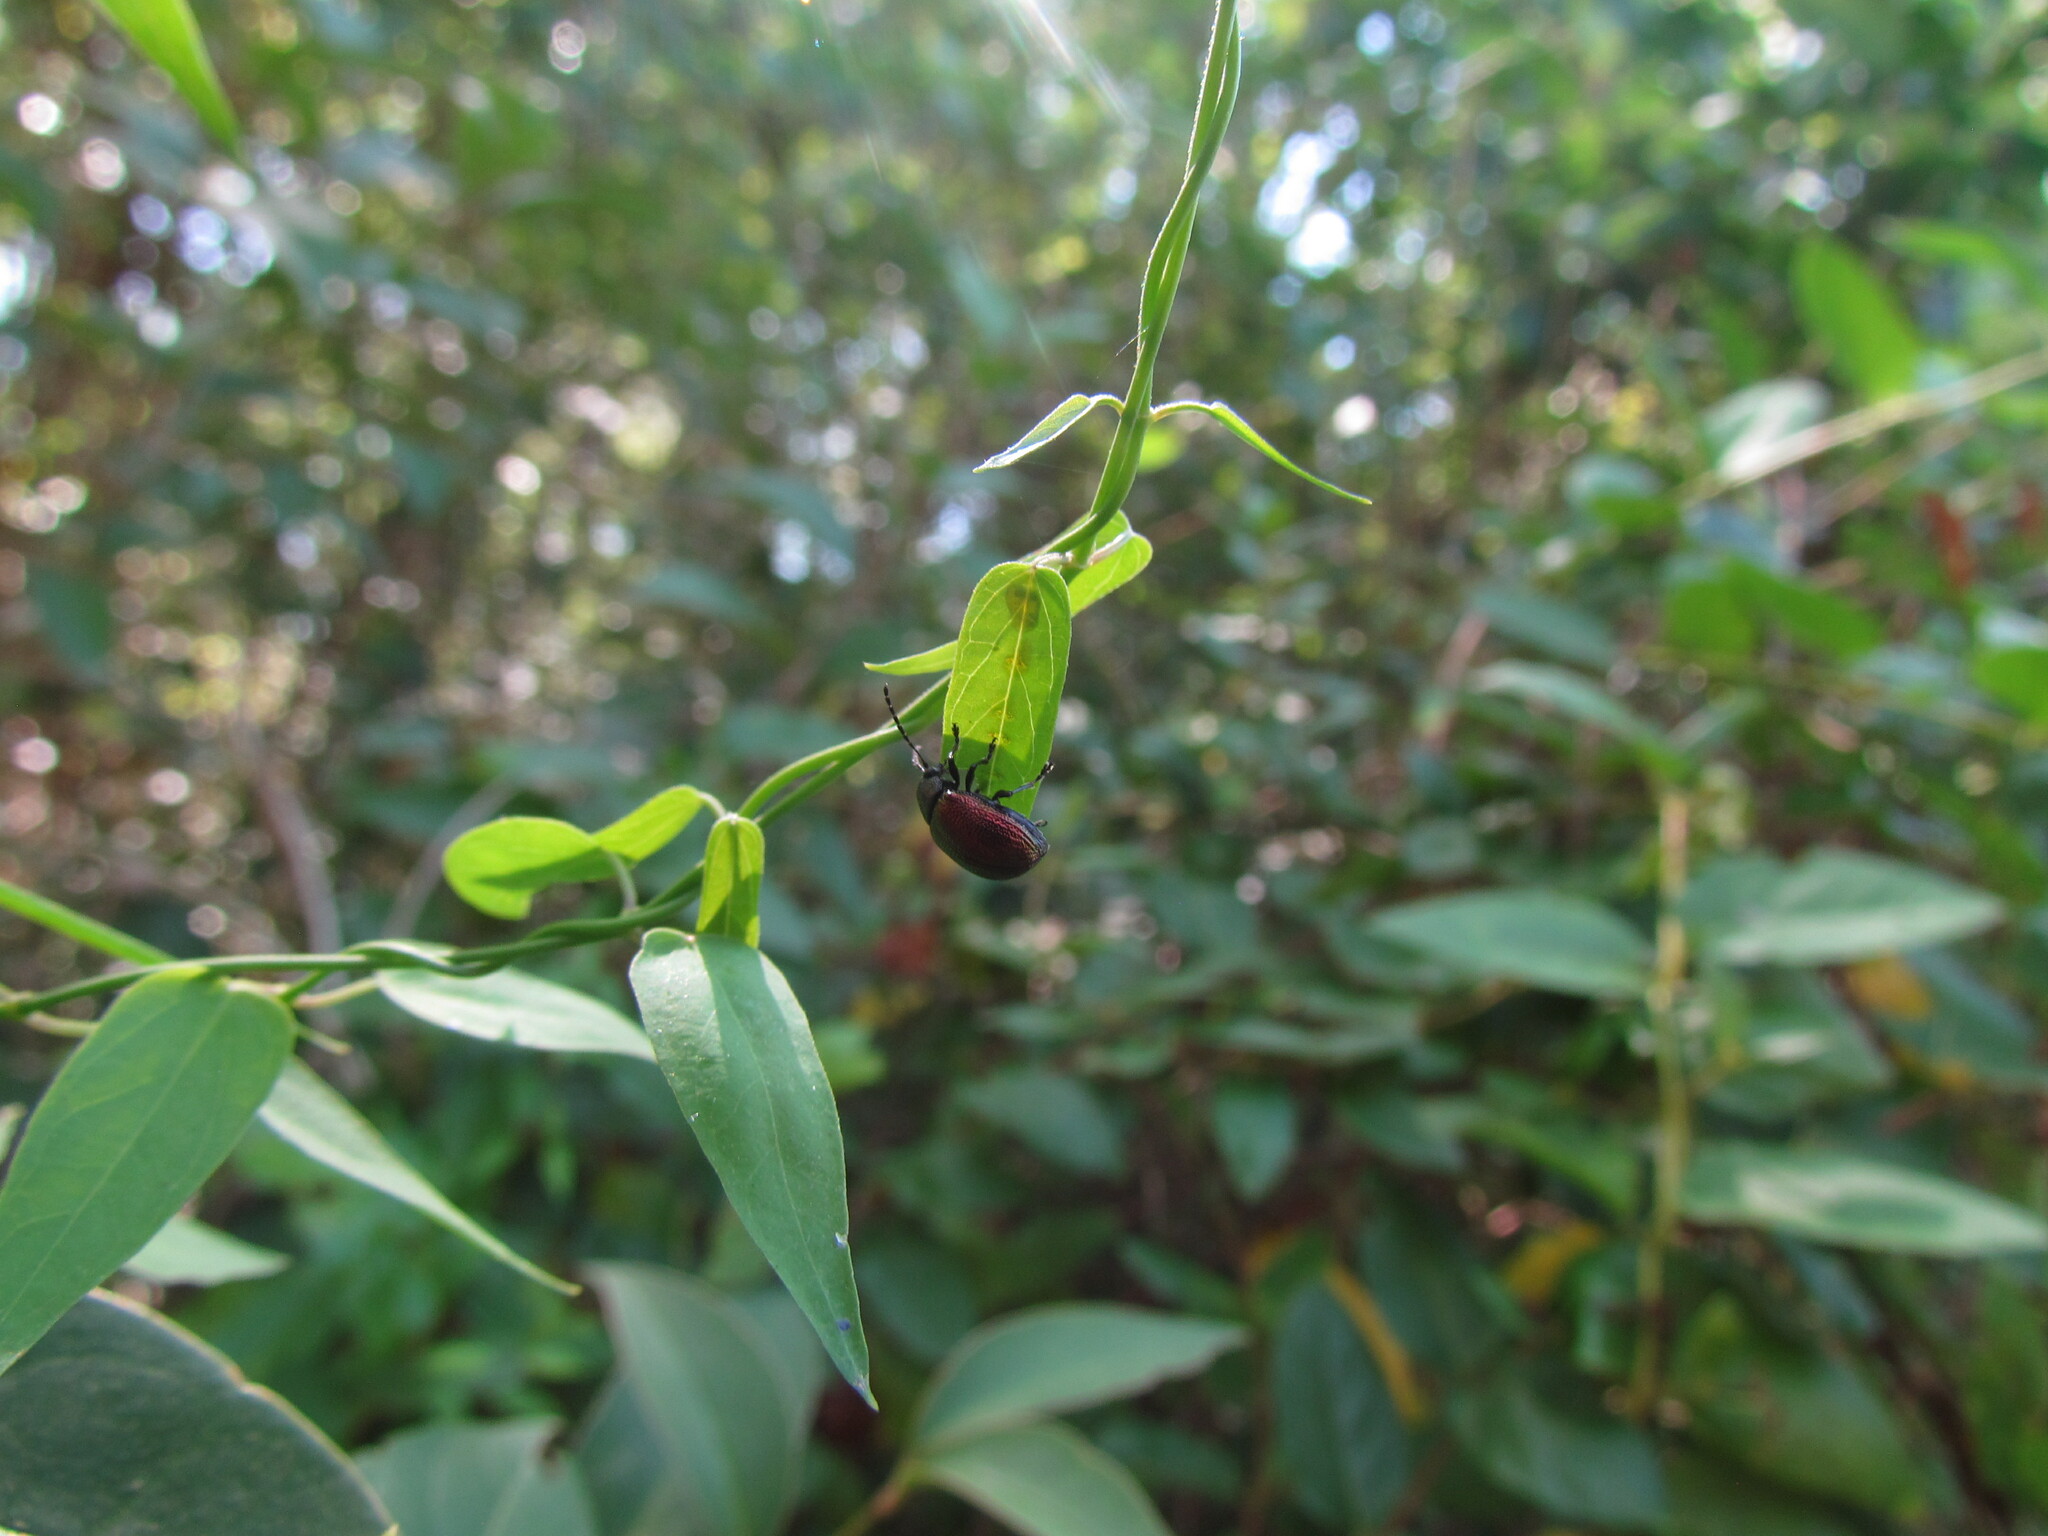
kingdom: Animalia
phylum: Arthropoda
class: Insecta
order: Coleoptera
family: Chrysomelidae
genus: Freudeita
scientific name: Freudeita
